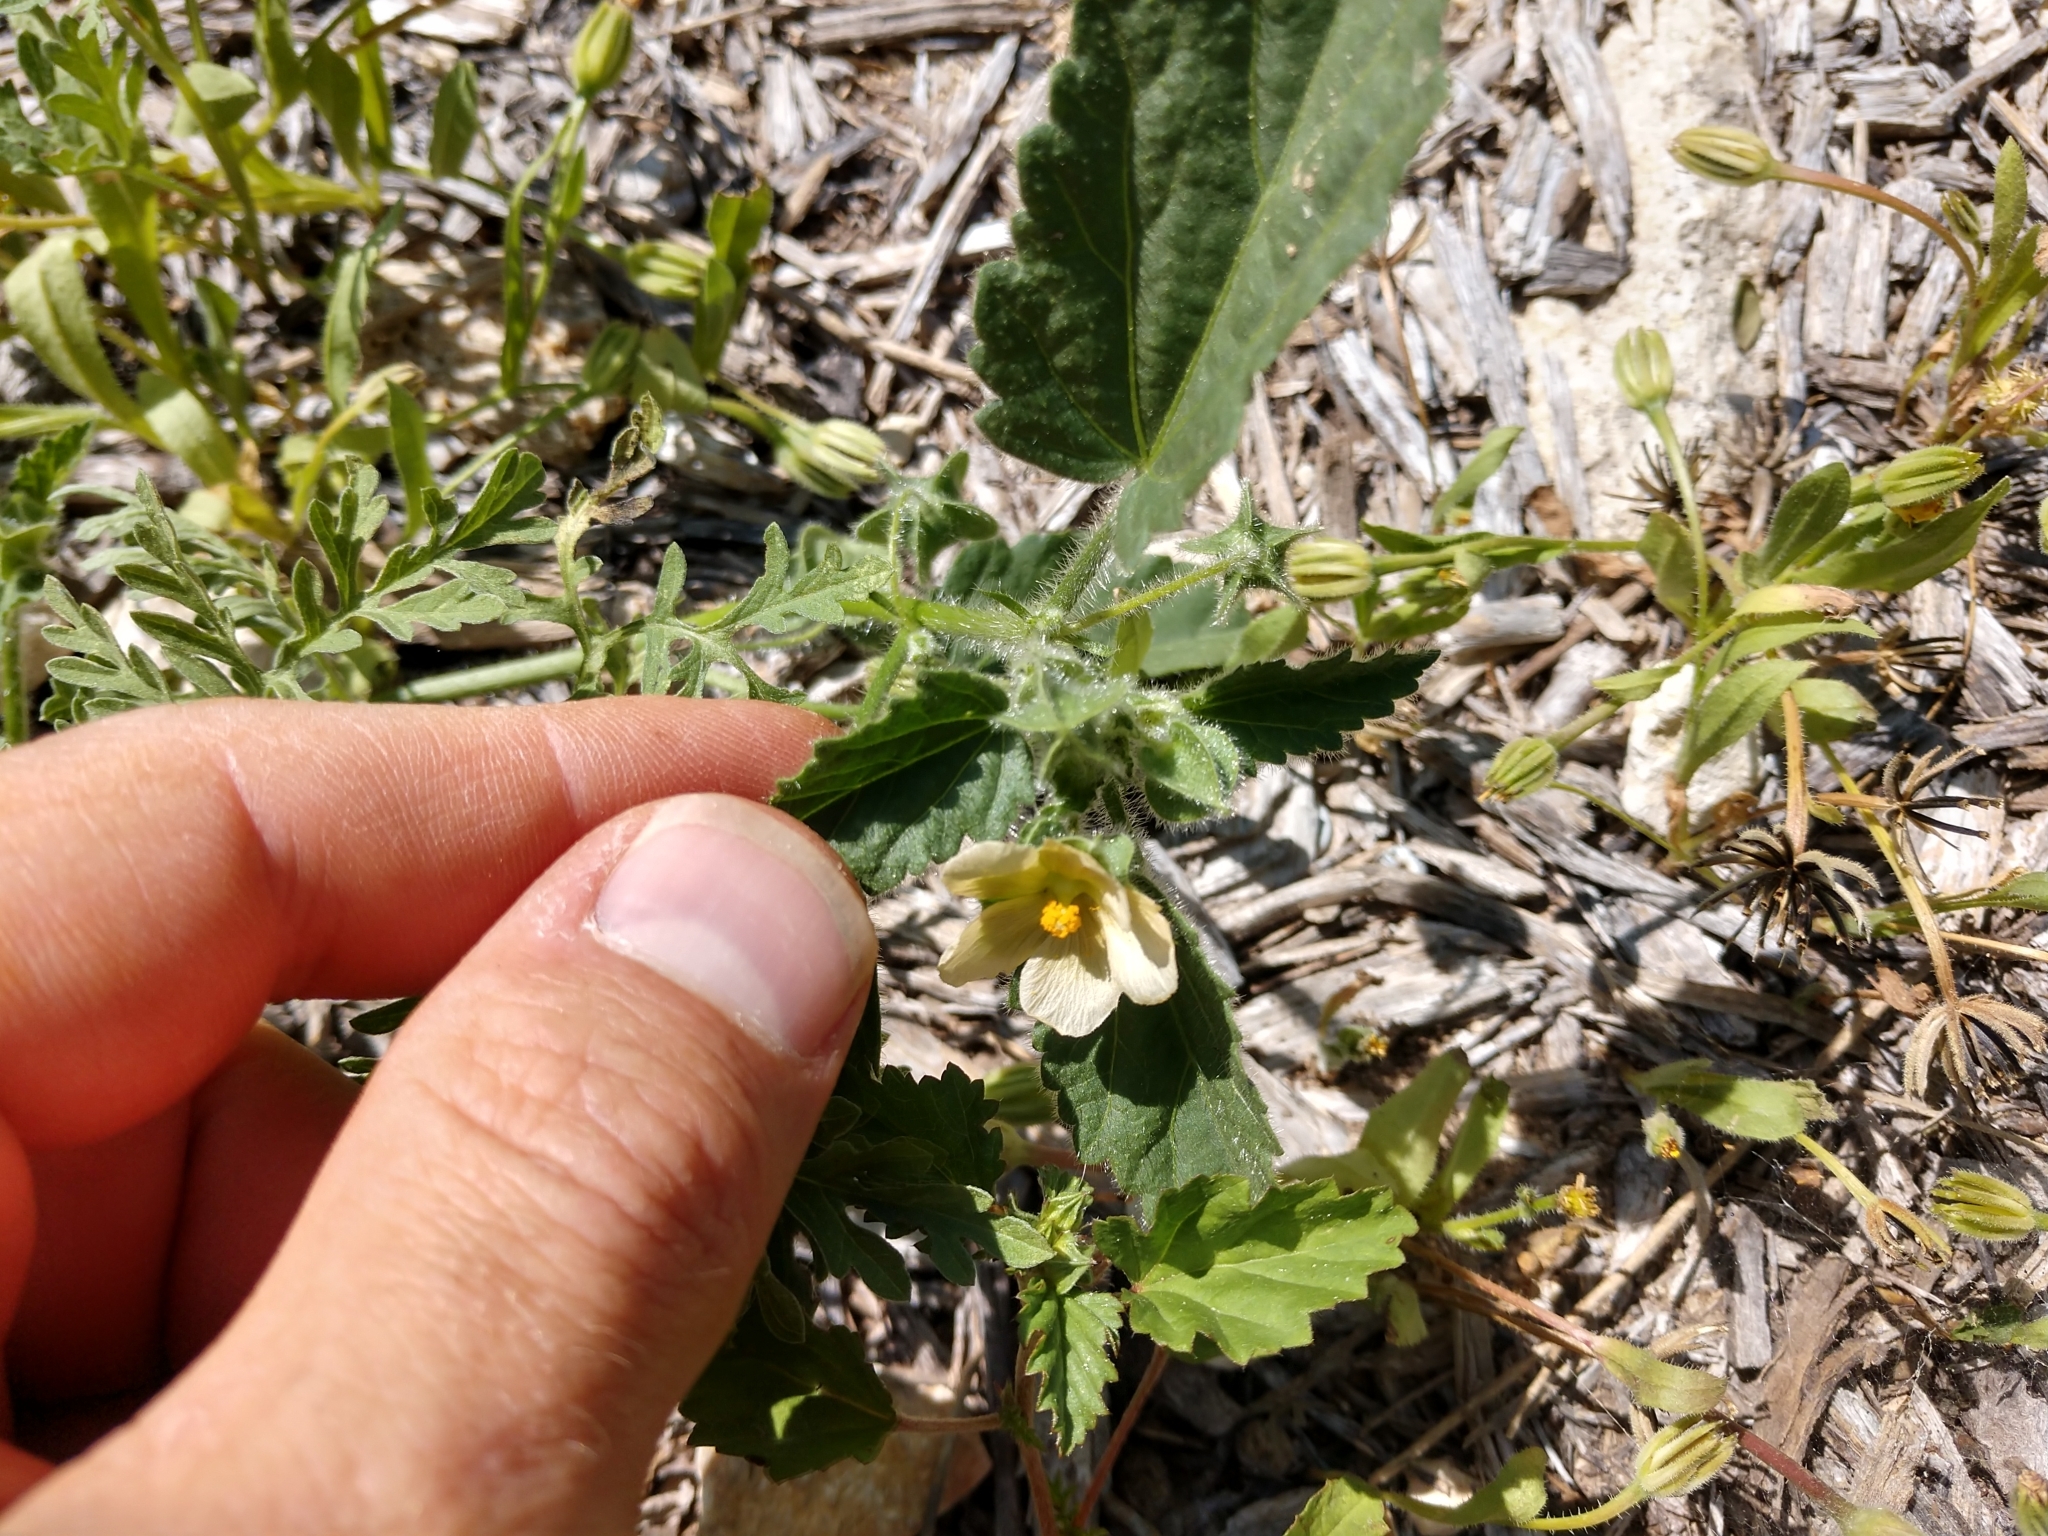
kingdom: Plantae
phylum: Tracheophyta
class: Magnoliopsida
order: Malvales
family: Malvaceae
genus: Rhynchosida
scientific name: Rhynchosida physocalyx
